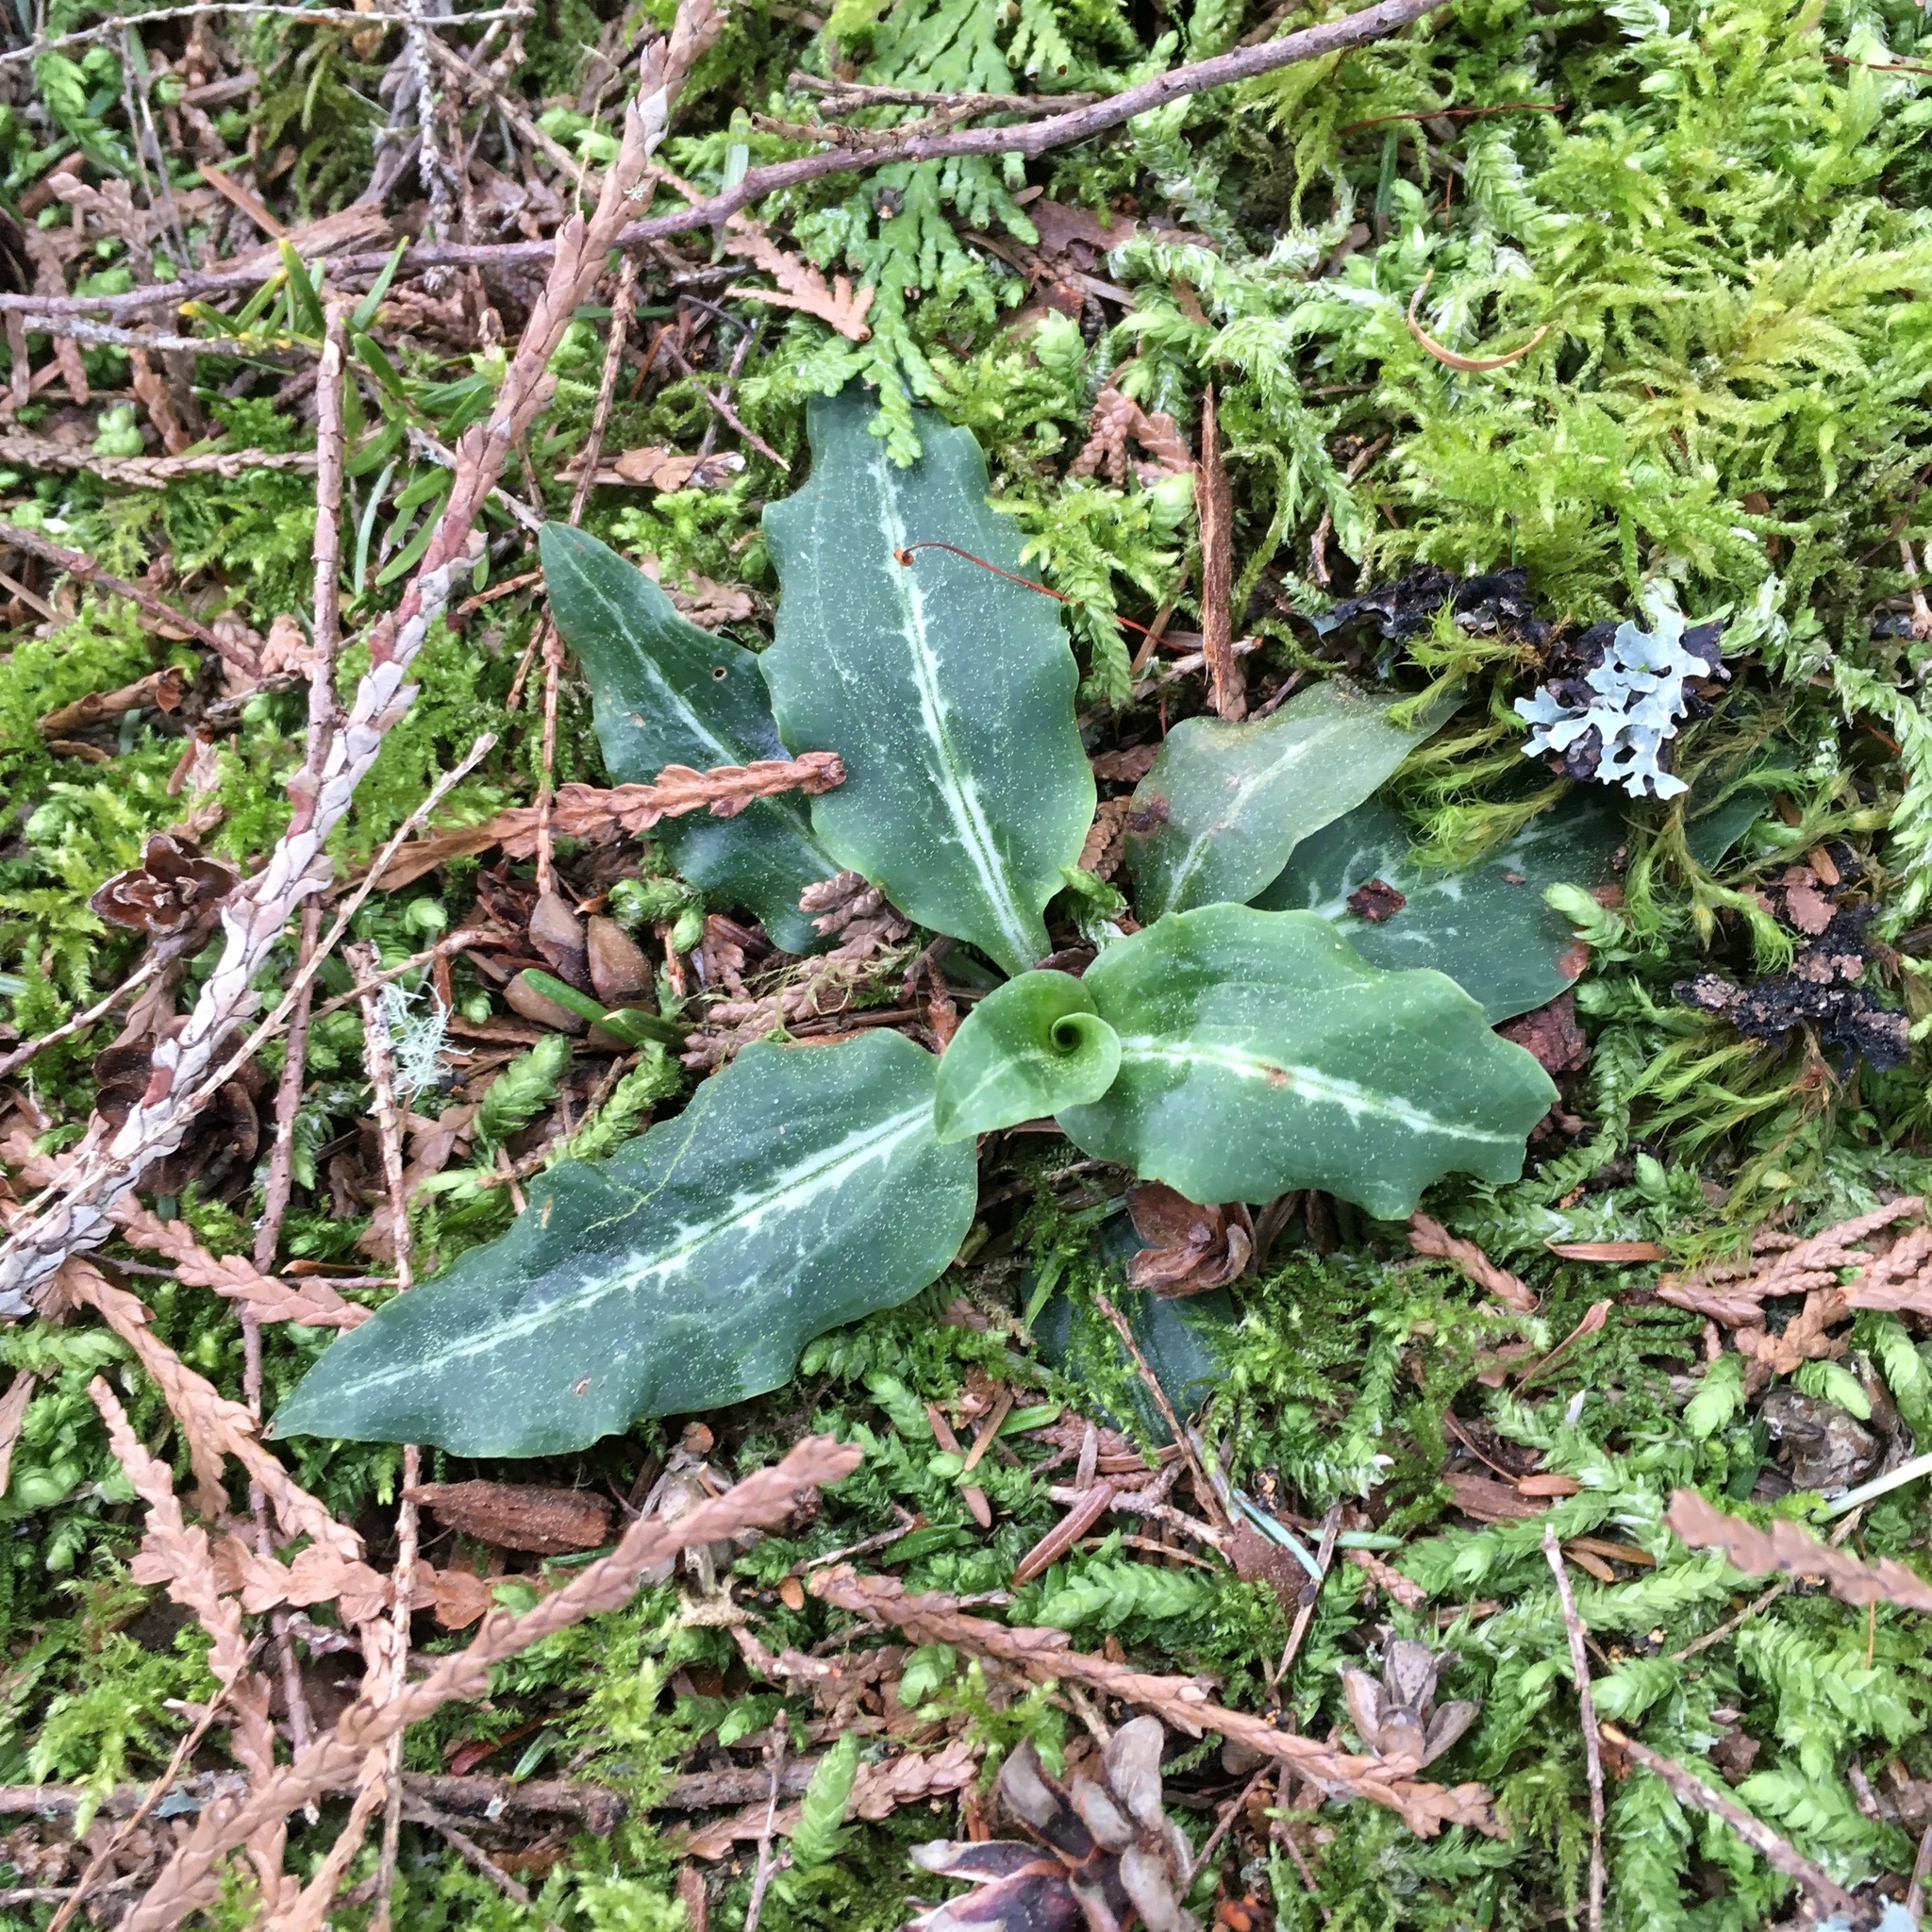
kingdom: Plantae
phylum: Tracheophyta
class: Liliopsida
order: Asparagales
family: Orchidaceae
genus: Goodyera
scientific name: Goodyera oblongifolia
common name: Giant rattlesnake-plantain
